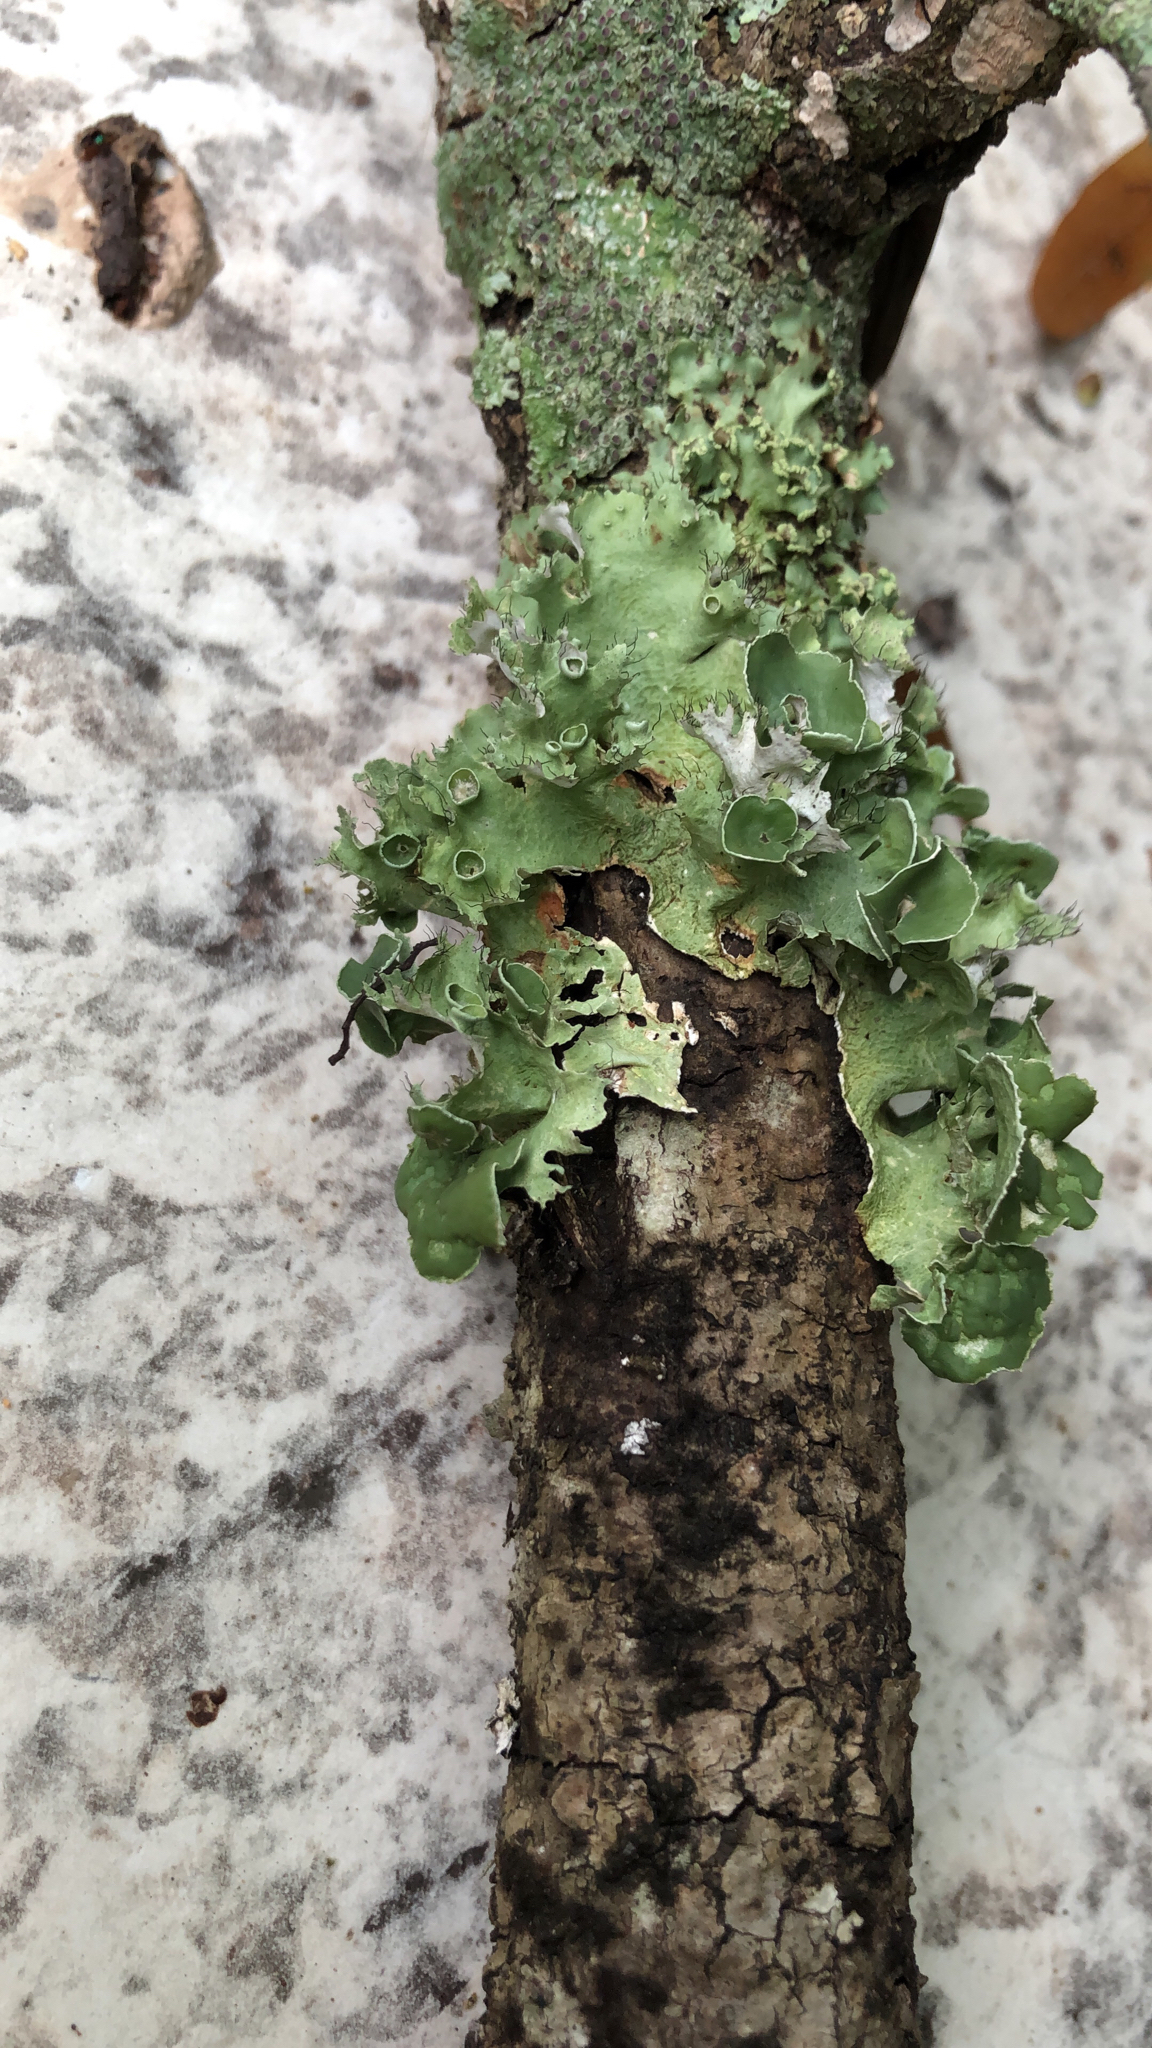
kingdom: Fungi
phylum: Ascomycota
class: Lecanoromycetes
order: Lecanorales
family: Parmeliaceae
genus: Parmotrema
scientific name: Parmotrema perforatum
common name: Perforated ruffle lichen
